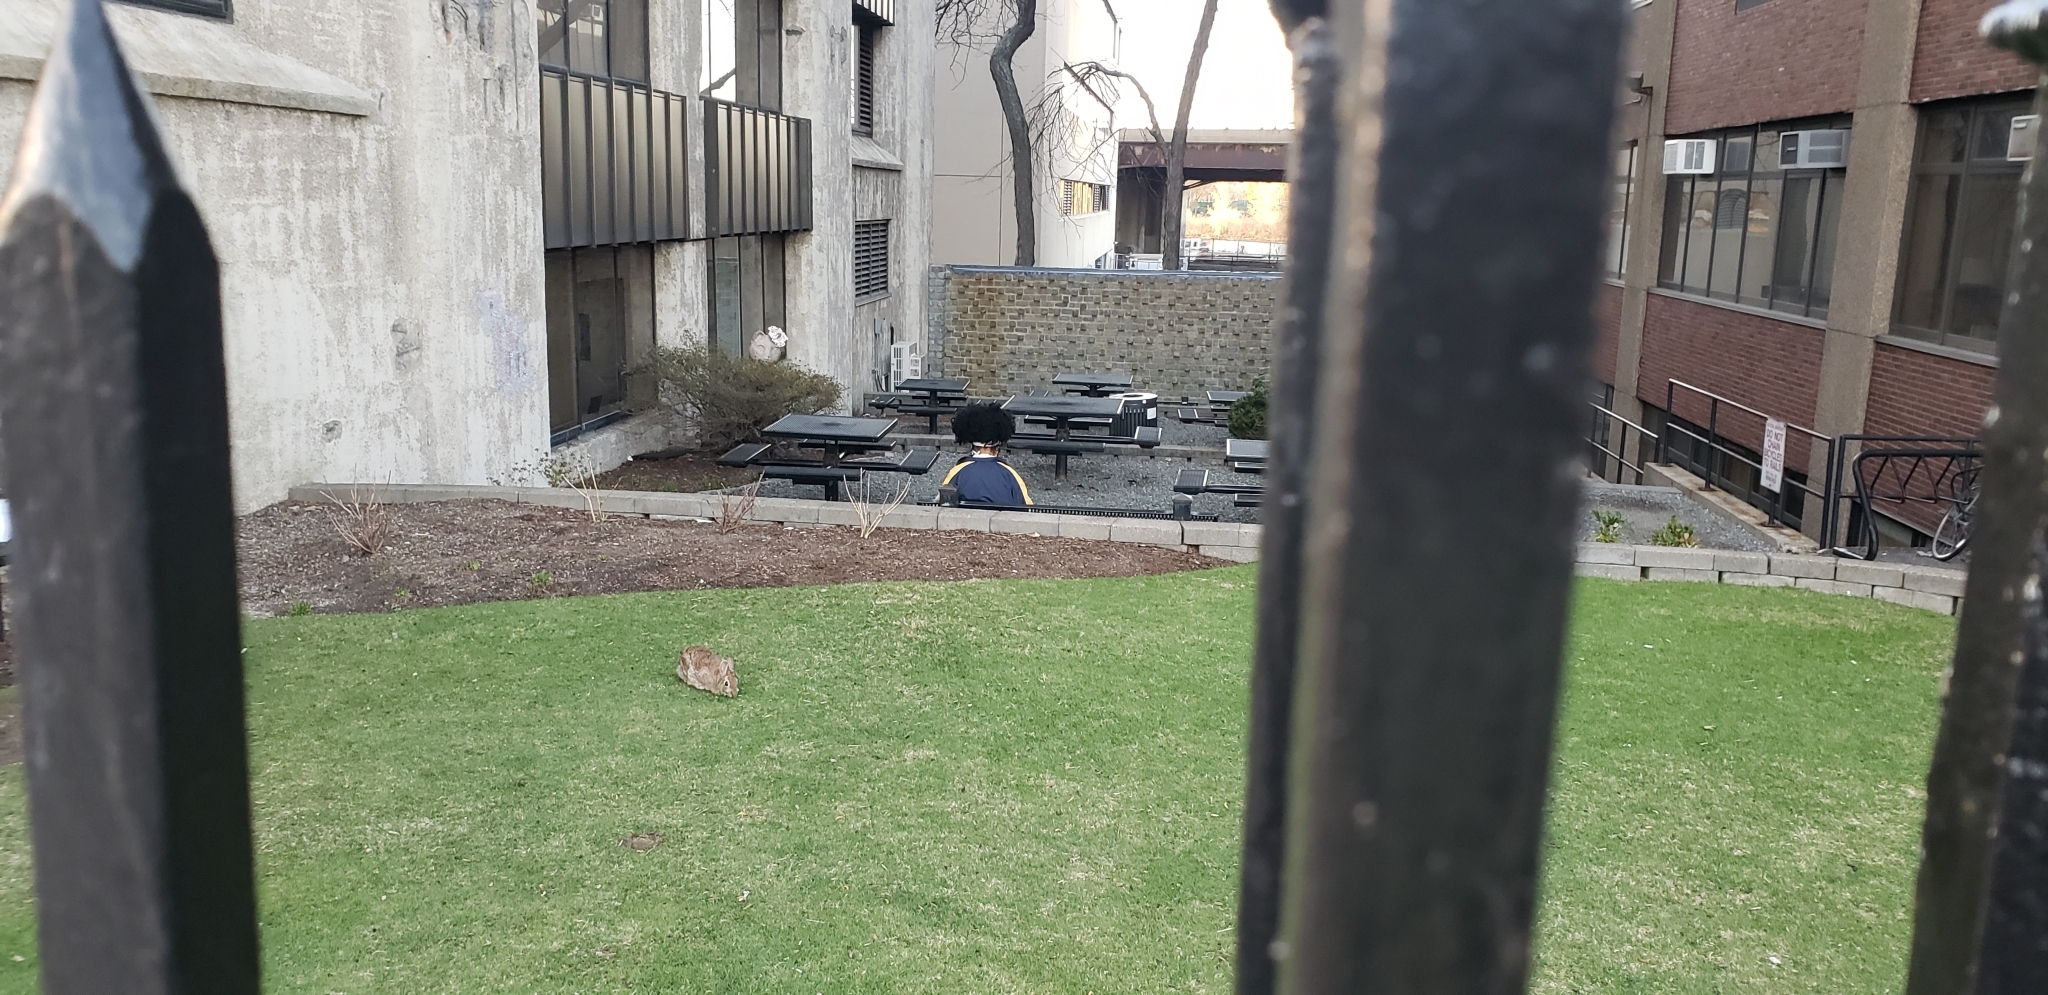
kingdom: Animalia
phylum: Chordata
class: Mammalia
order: Lagomorpha
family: Leporidae
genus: Sylvilagus
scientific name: Sylvilagus floridanus
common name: Eastern cottontail
